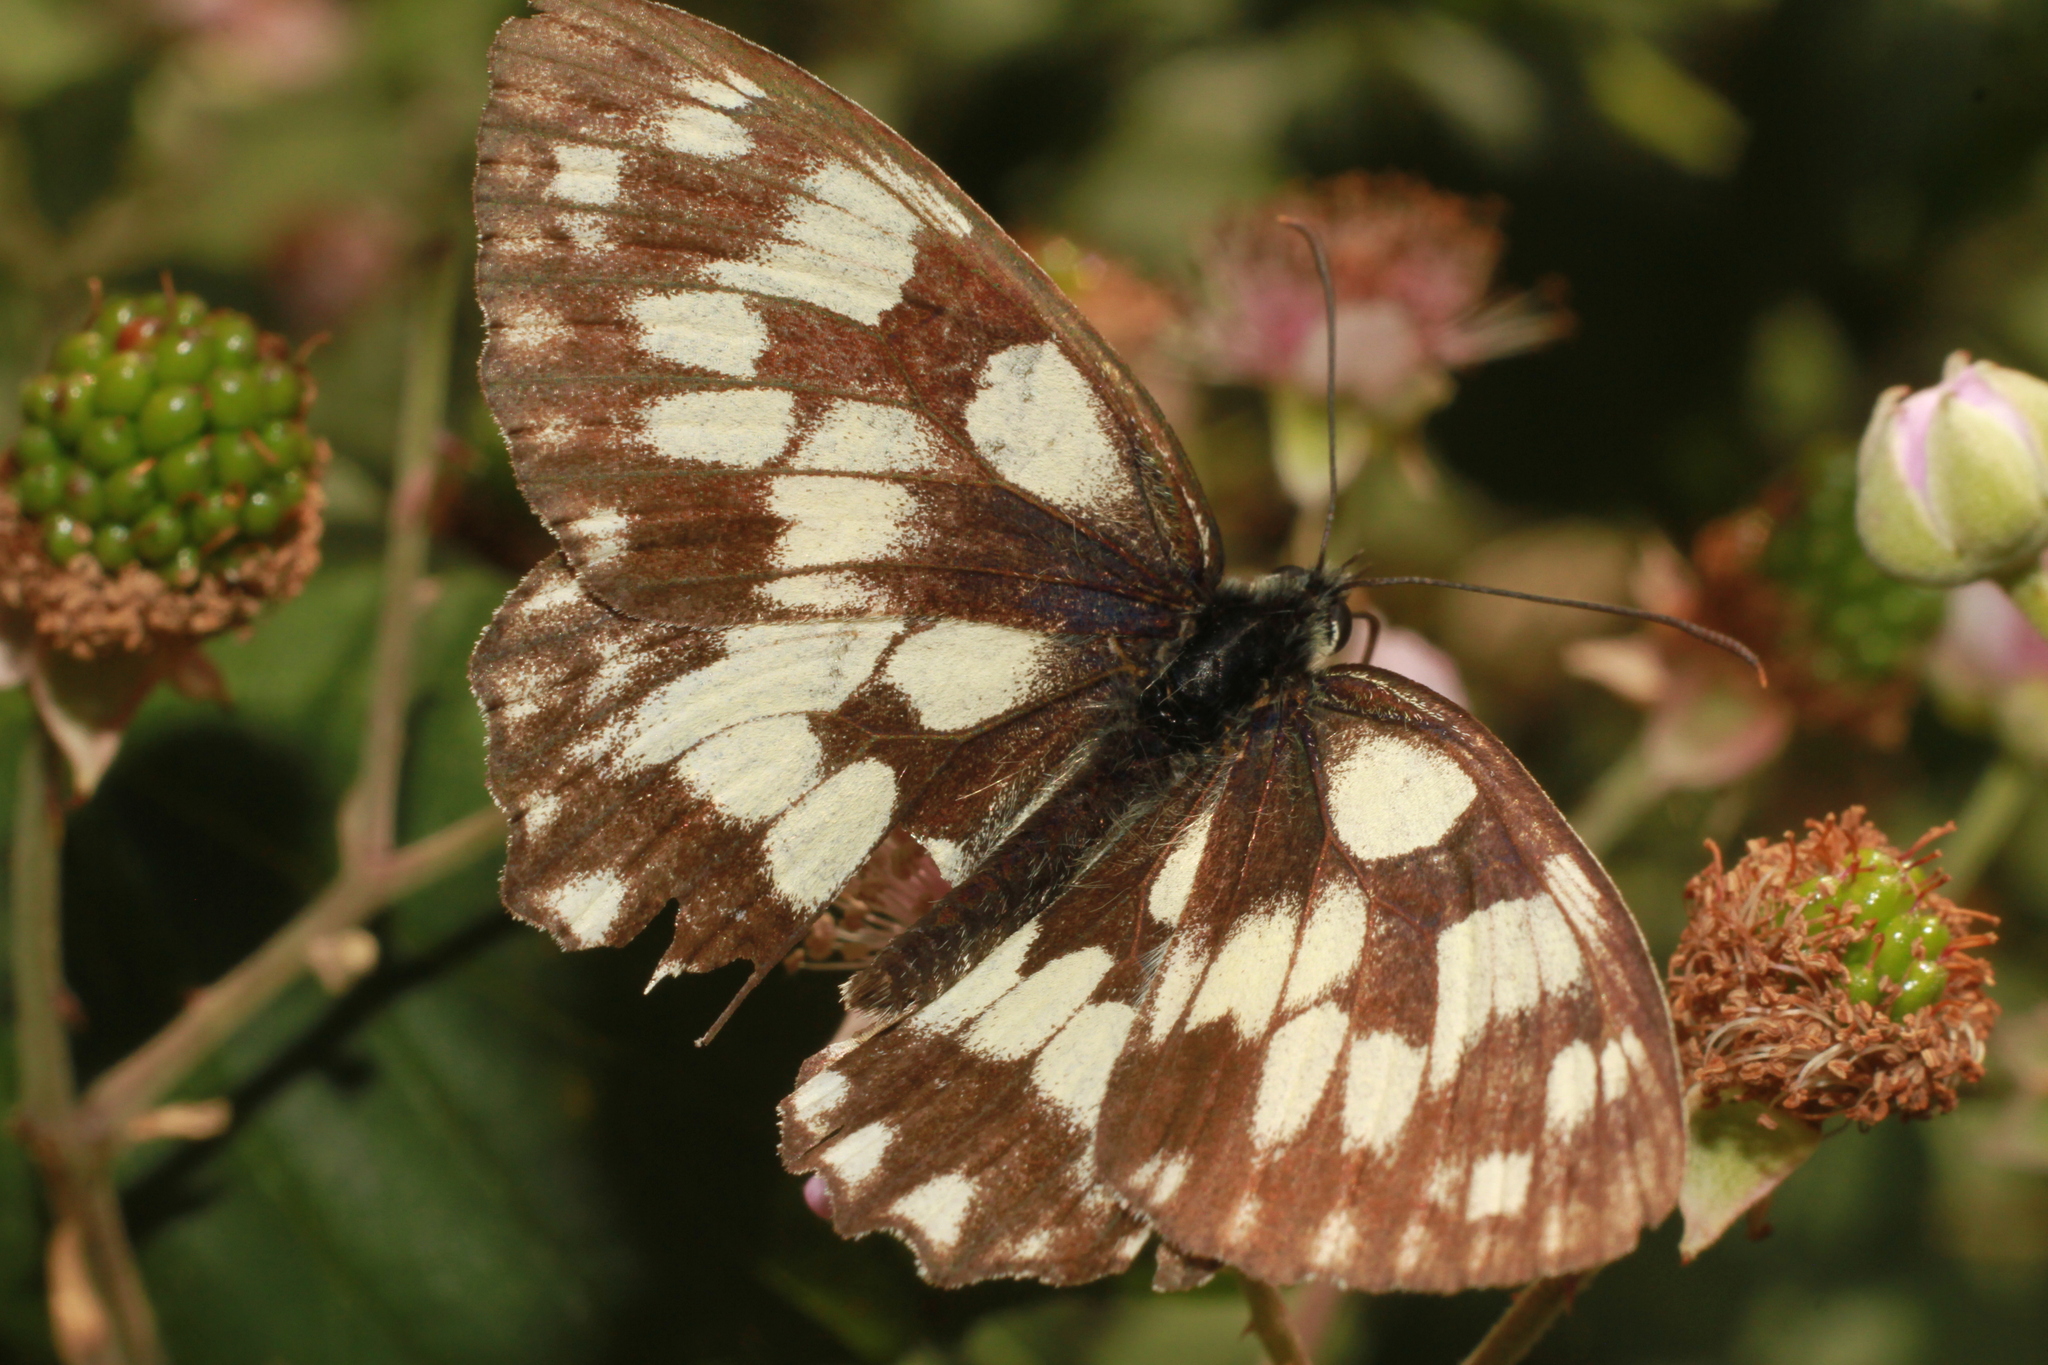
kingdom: Animalia
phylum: Arthropoda
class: Insecta
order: Lepidoptera
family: Nymphalidae
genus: Melanargia
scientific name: Melanargia galathea
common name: Marbled white
